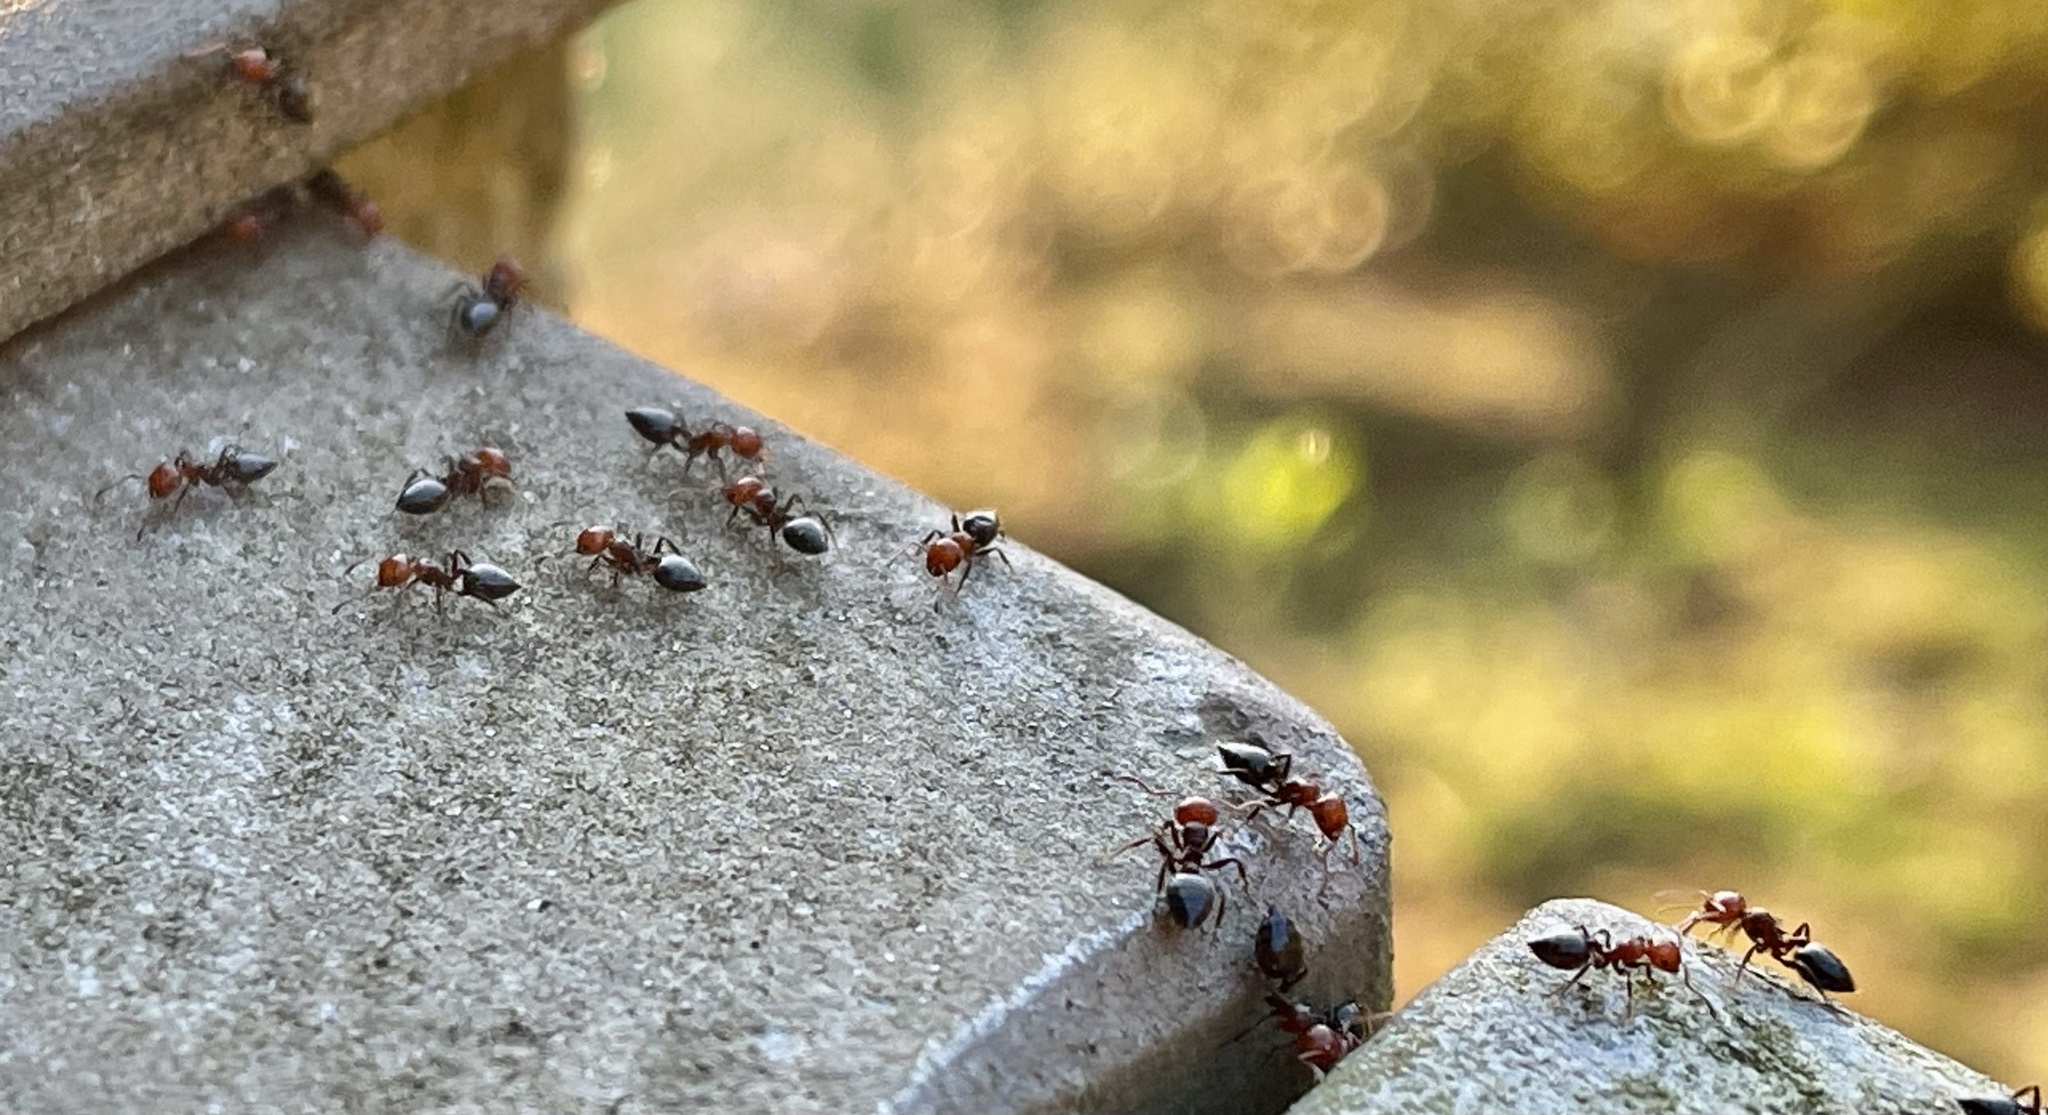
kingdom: Animalia
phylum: Arthropoda
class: Insecta
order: Hymenoptera
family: Formicidae
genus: Crematogaster
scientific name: Crematogaster scutellaris
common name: Fourmi du liège
